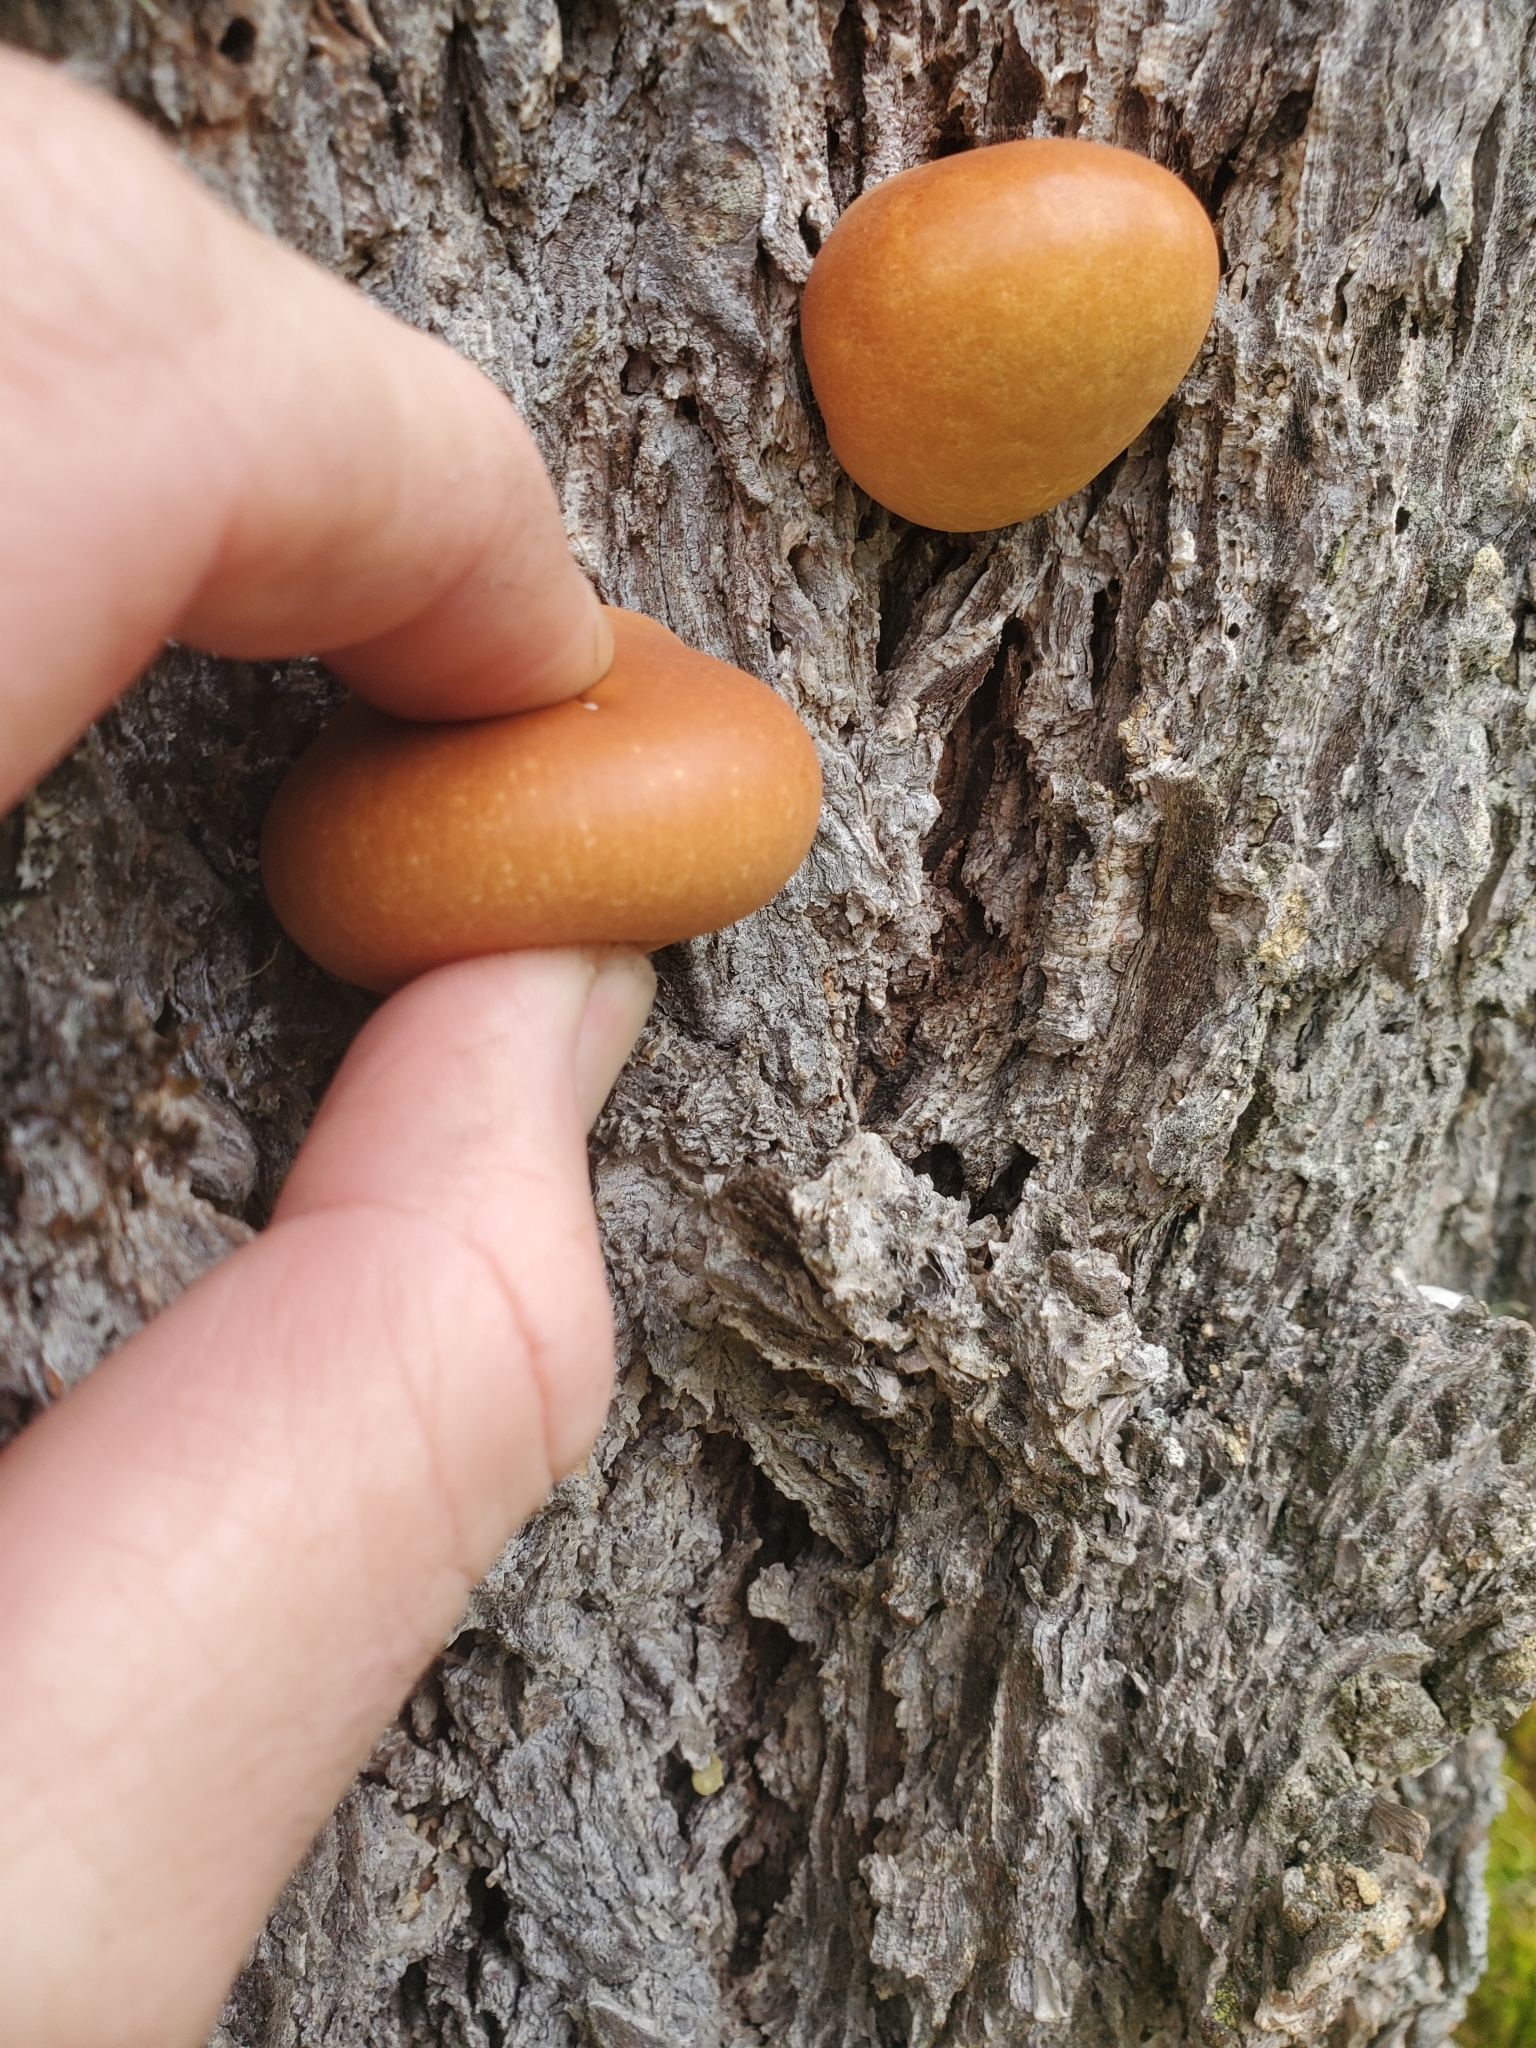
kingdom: Fungi
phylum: Basidiomycota
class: Agaricomycetes
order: Polyporales
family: Polyporaceae
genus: Cryptoporus
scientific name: Cryptoporus volvatus
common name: Veiled polypore
